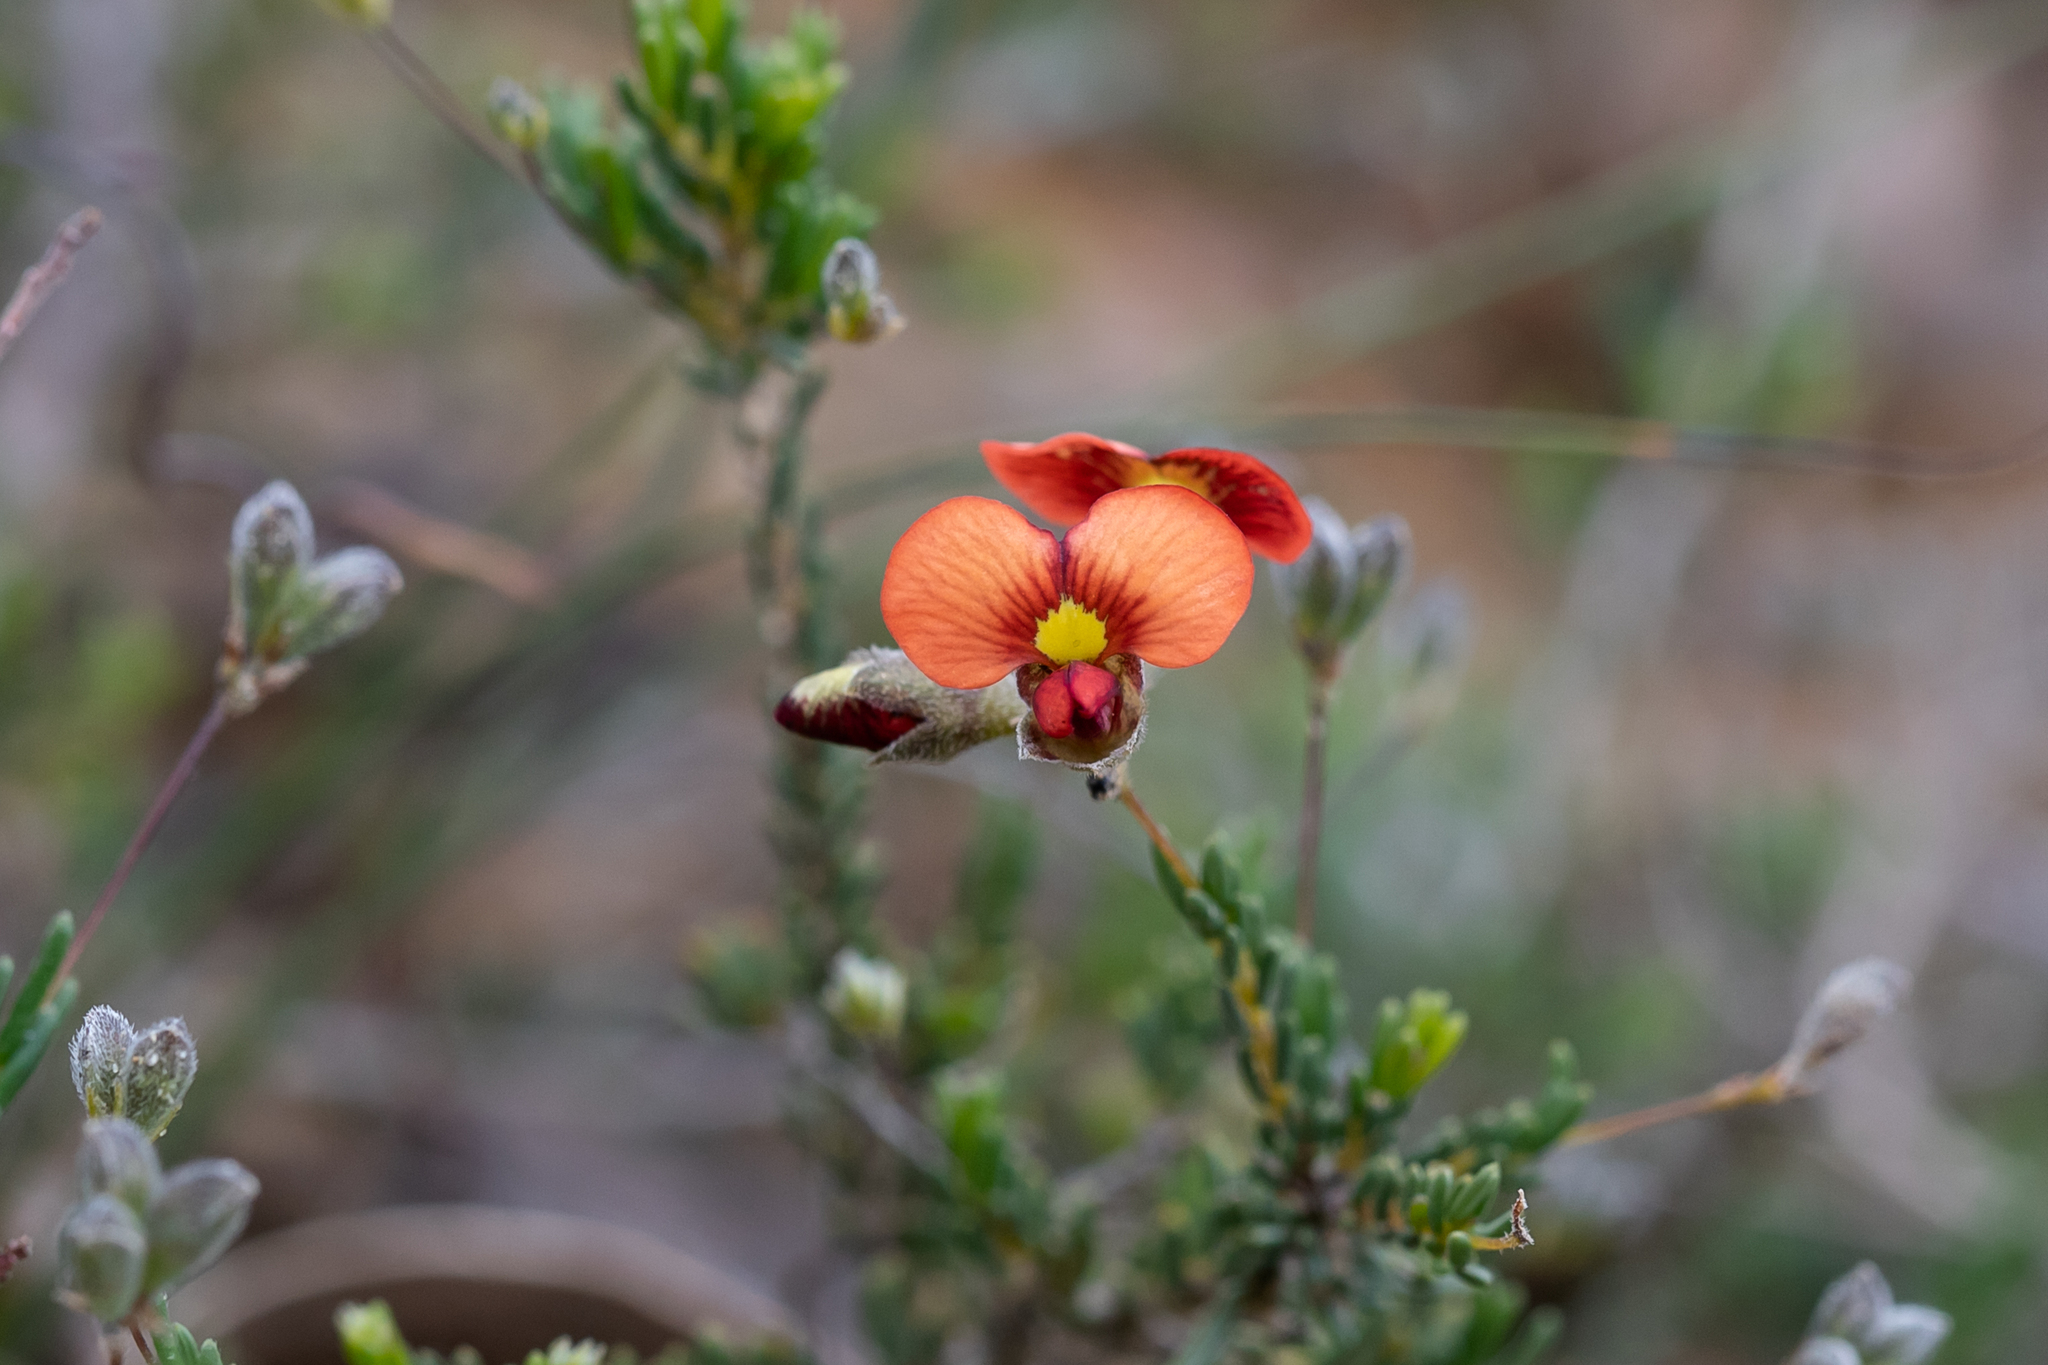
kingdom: Plantae
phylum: Tracheophyta
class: Magnoliopsida
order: Fabales
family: Fabaceae
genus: Dillwynia
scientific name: Dillwynia hispida
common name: Red parrot-pea
